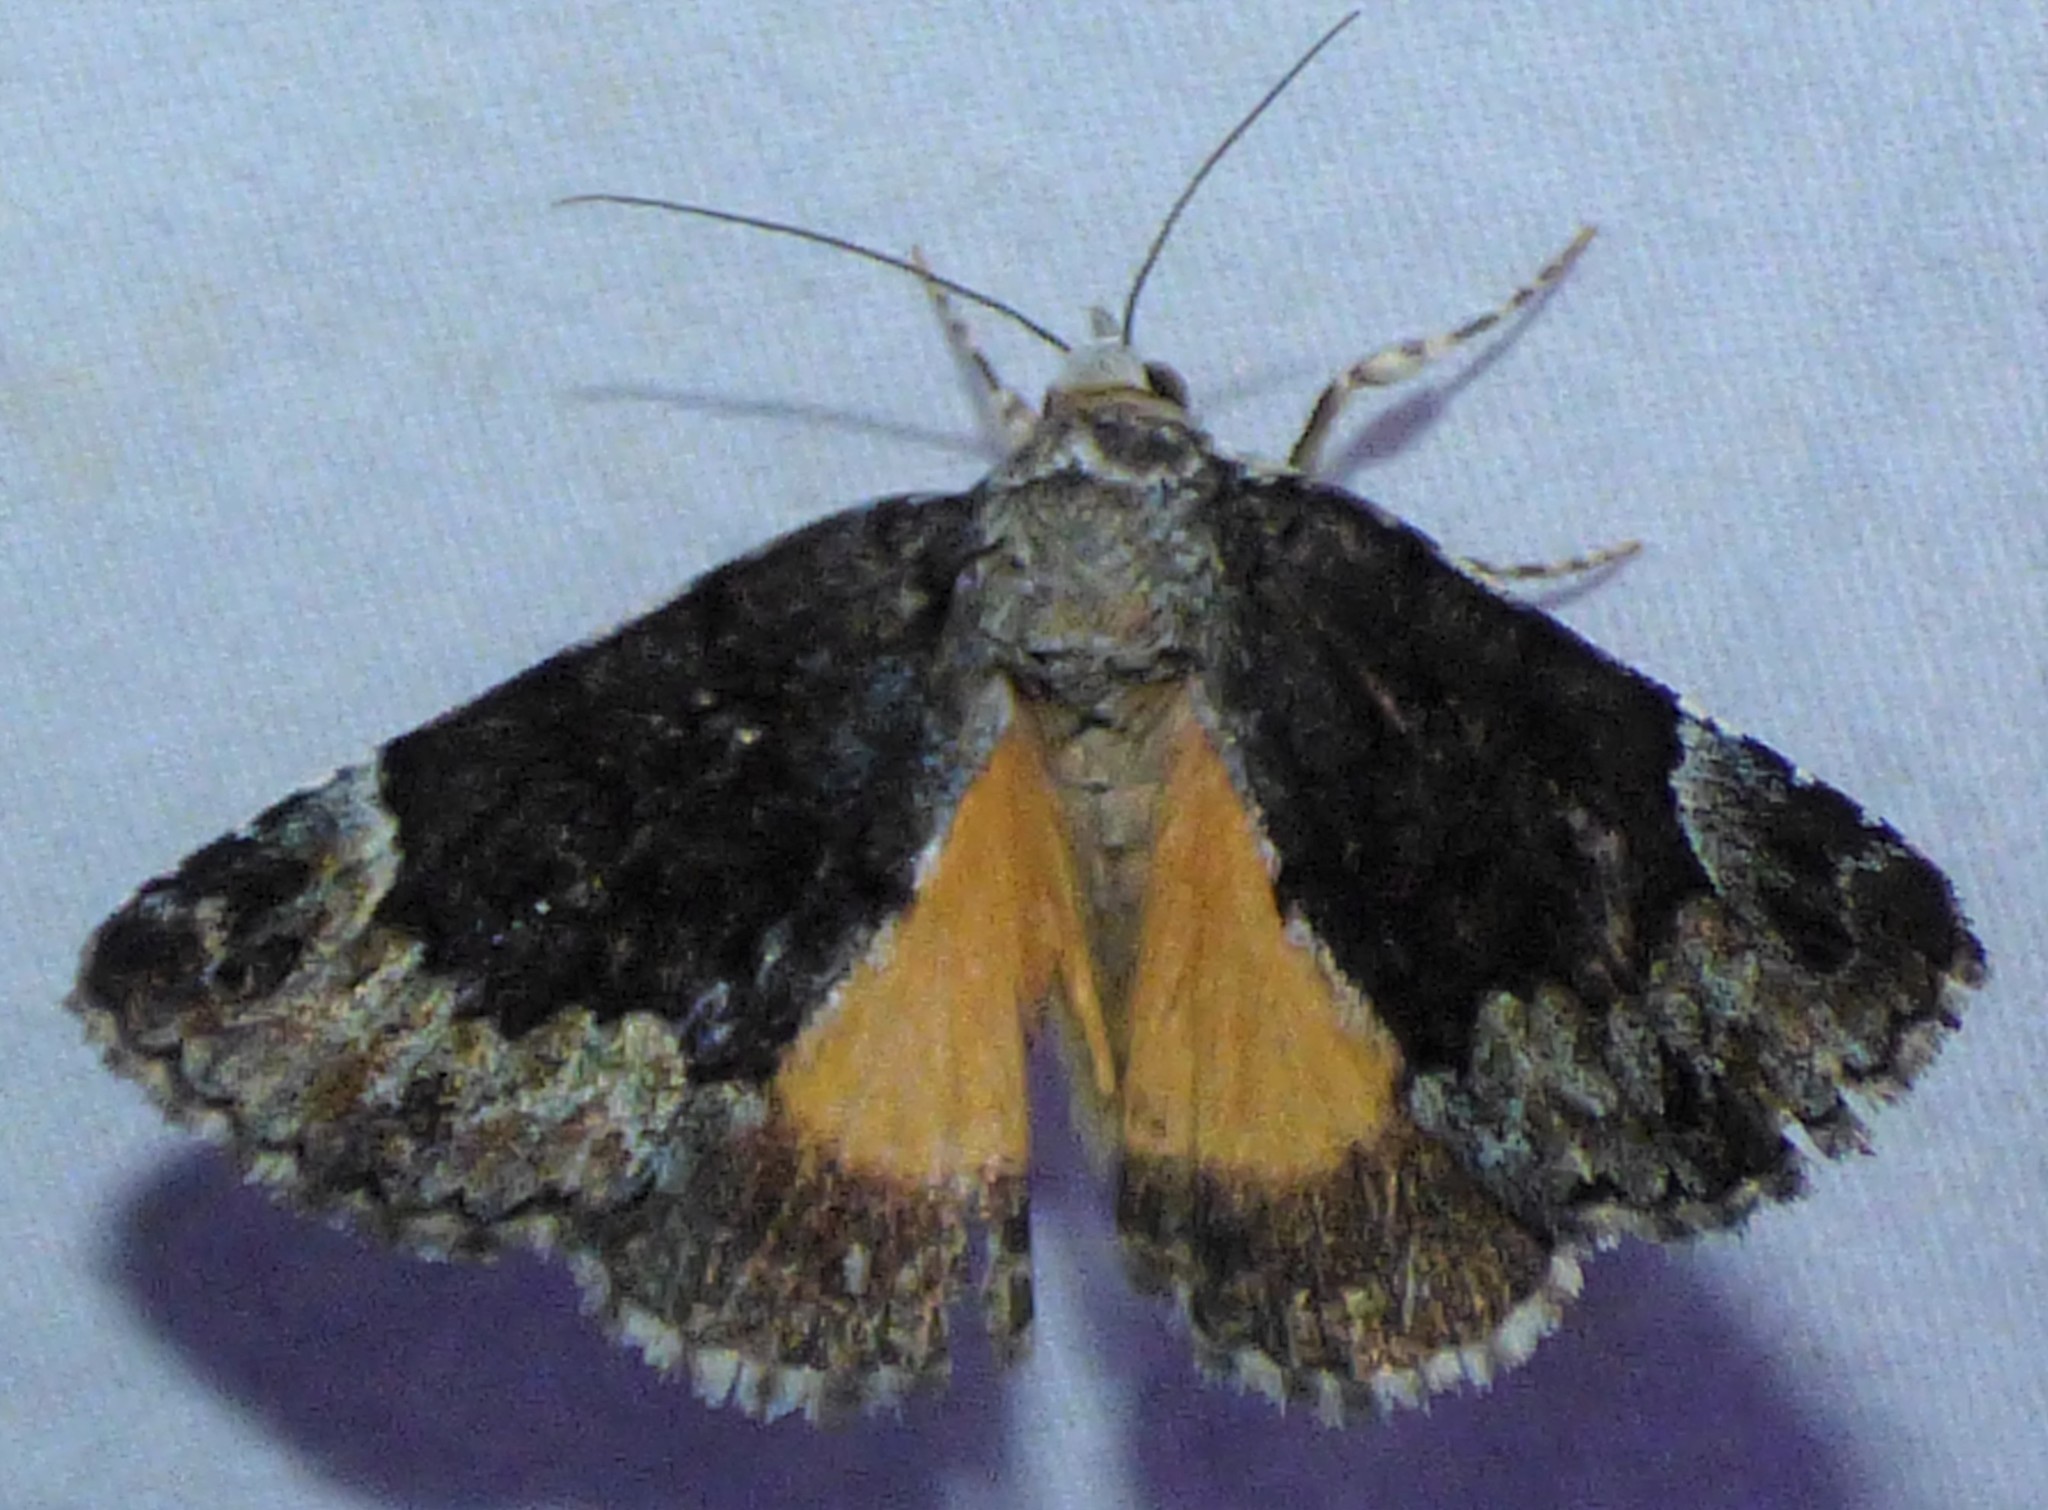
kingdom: Animalia
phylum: Arthropoda
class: Insecta
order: Lepidoptera
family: Erebidae
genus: Allotria
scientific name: Allotria elonympha
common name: False underwing
